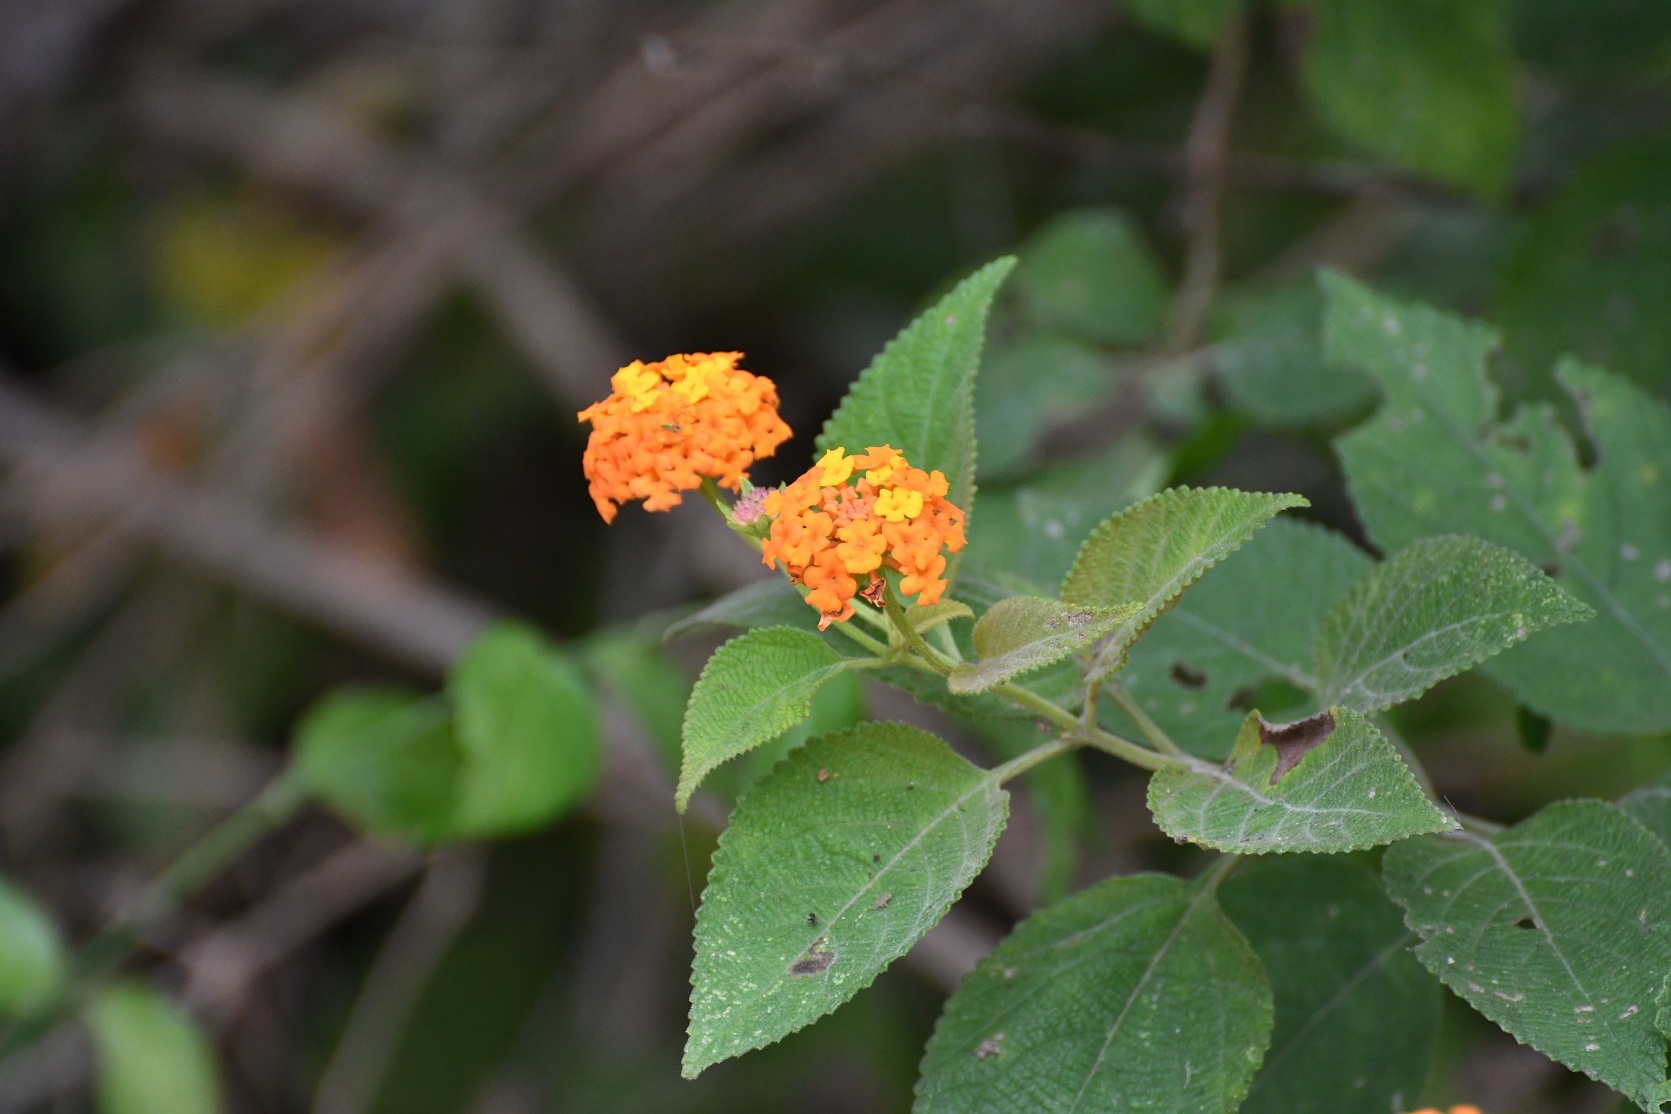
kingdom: Plantae
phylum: Tracheophyta
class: Magnoliopsida
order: Lamiales
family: Verbenaceae
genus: Lantana
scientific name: Lantana horrida
